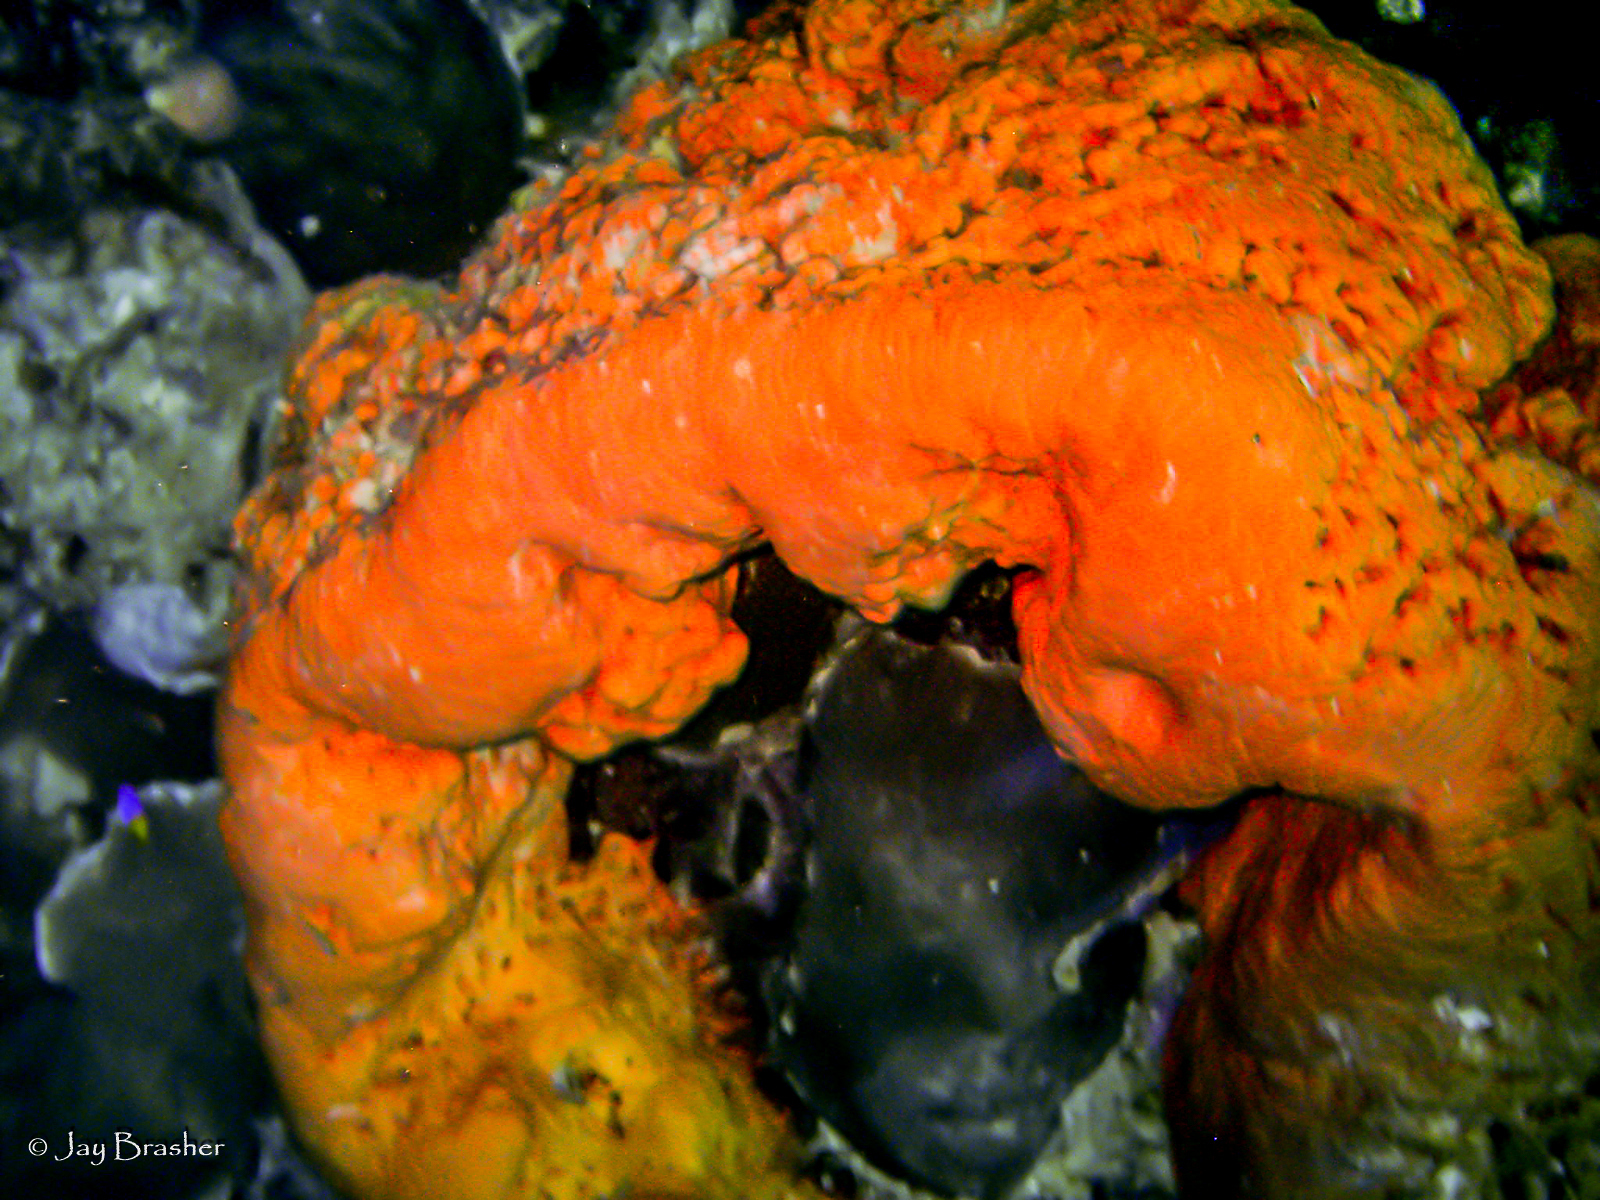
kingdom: Animalia
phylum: Porifera
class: Demospongiae
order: Agelasida
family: Agelasidae
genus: Agelas
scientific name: Agelas clathrodes
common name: Orange elephant ear sponge
